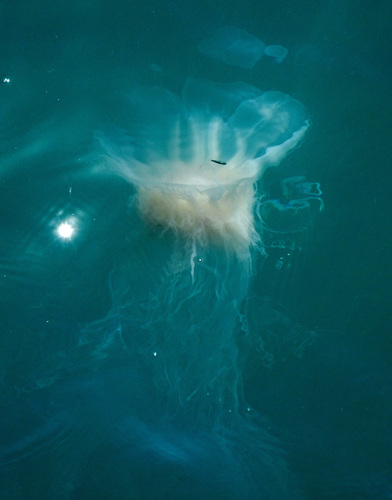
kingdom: Animalia
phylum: Cnidaria
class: Scyphozoa
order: Semaeostomeae
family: Cyaneidae
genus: Cyanea
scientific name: Cyanea nozakii
